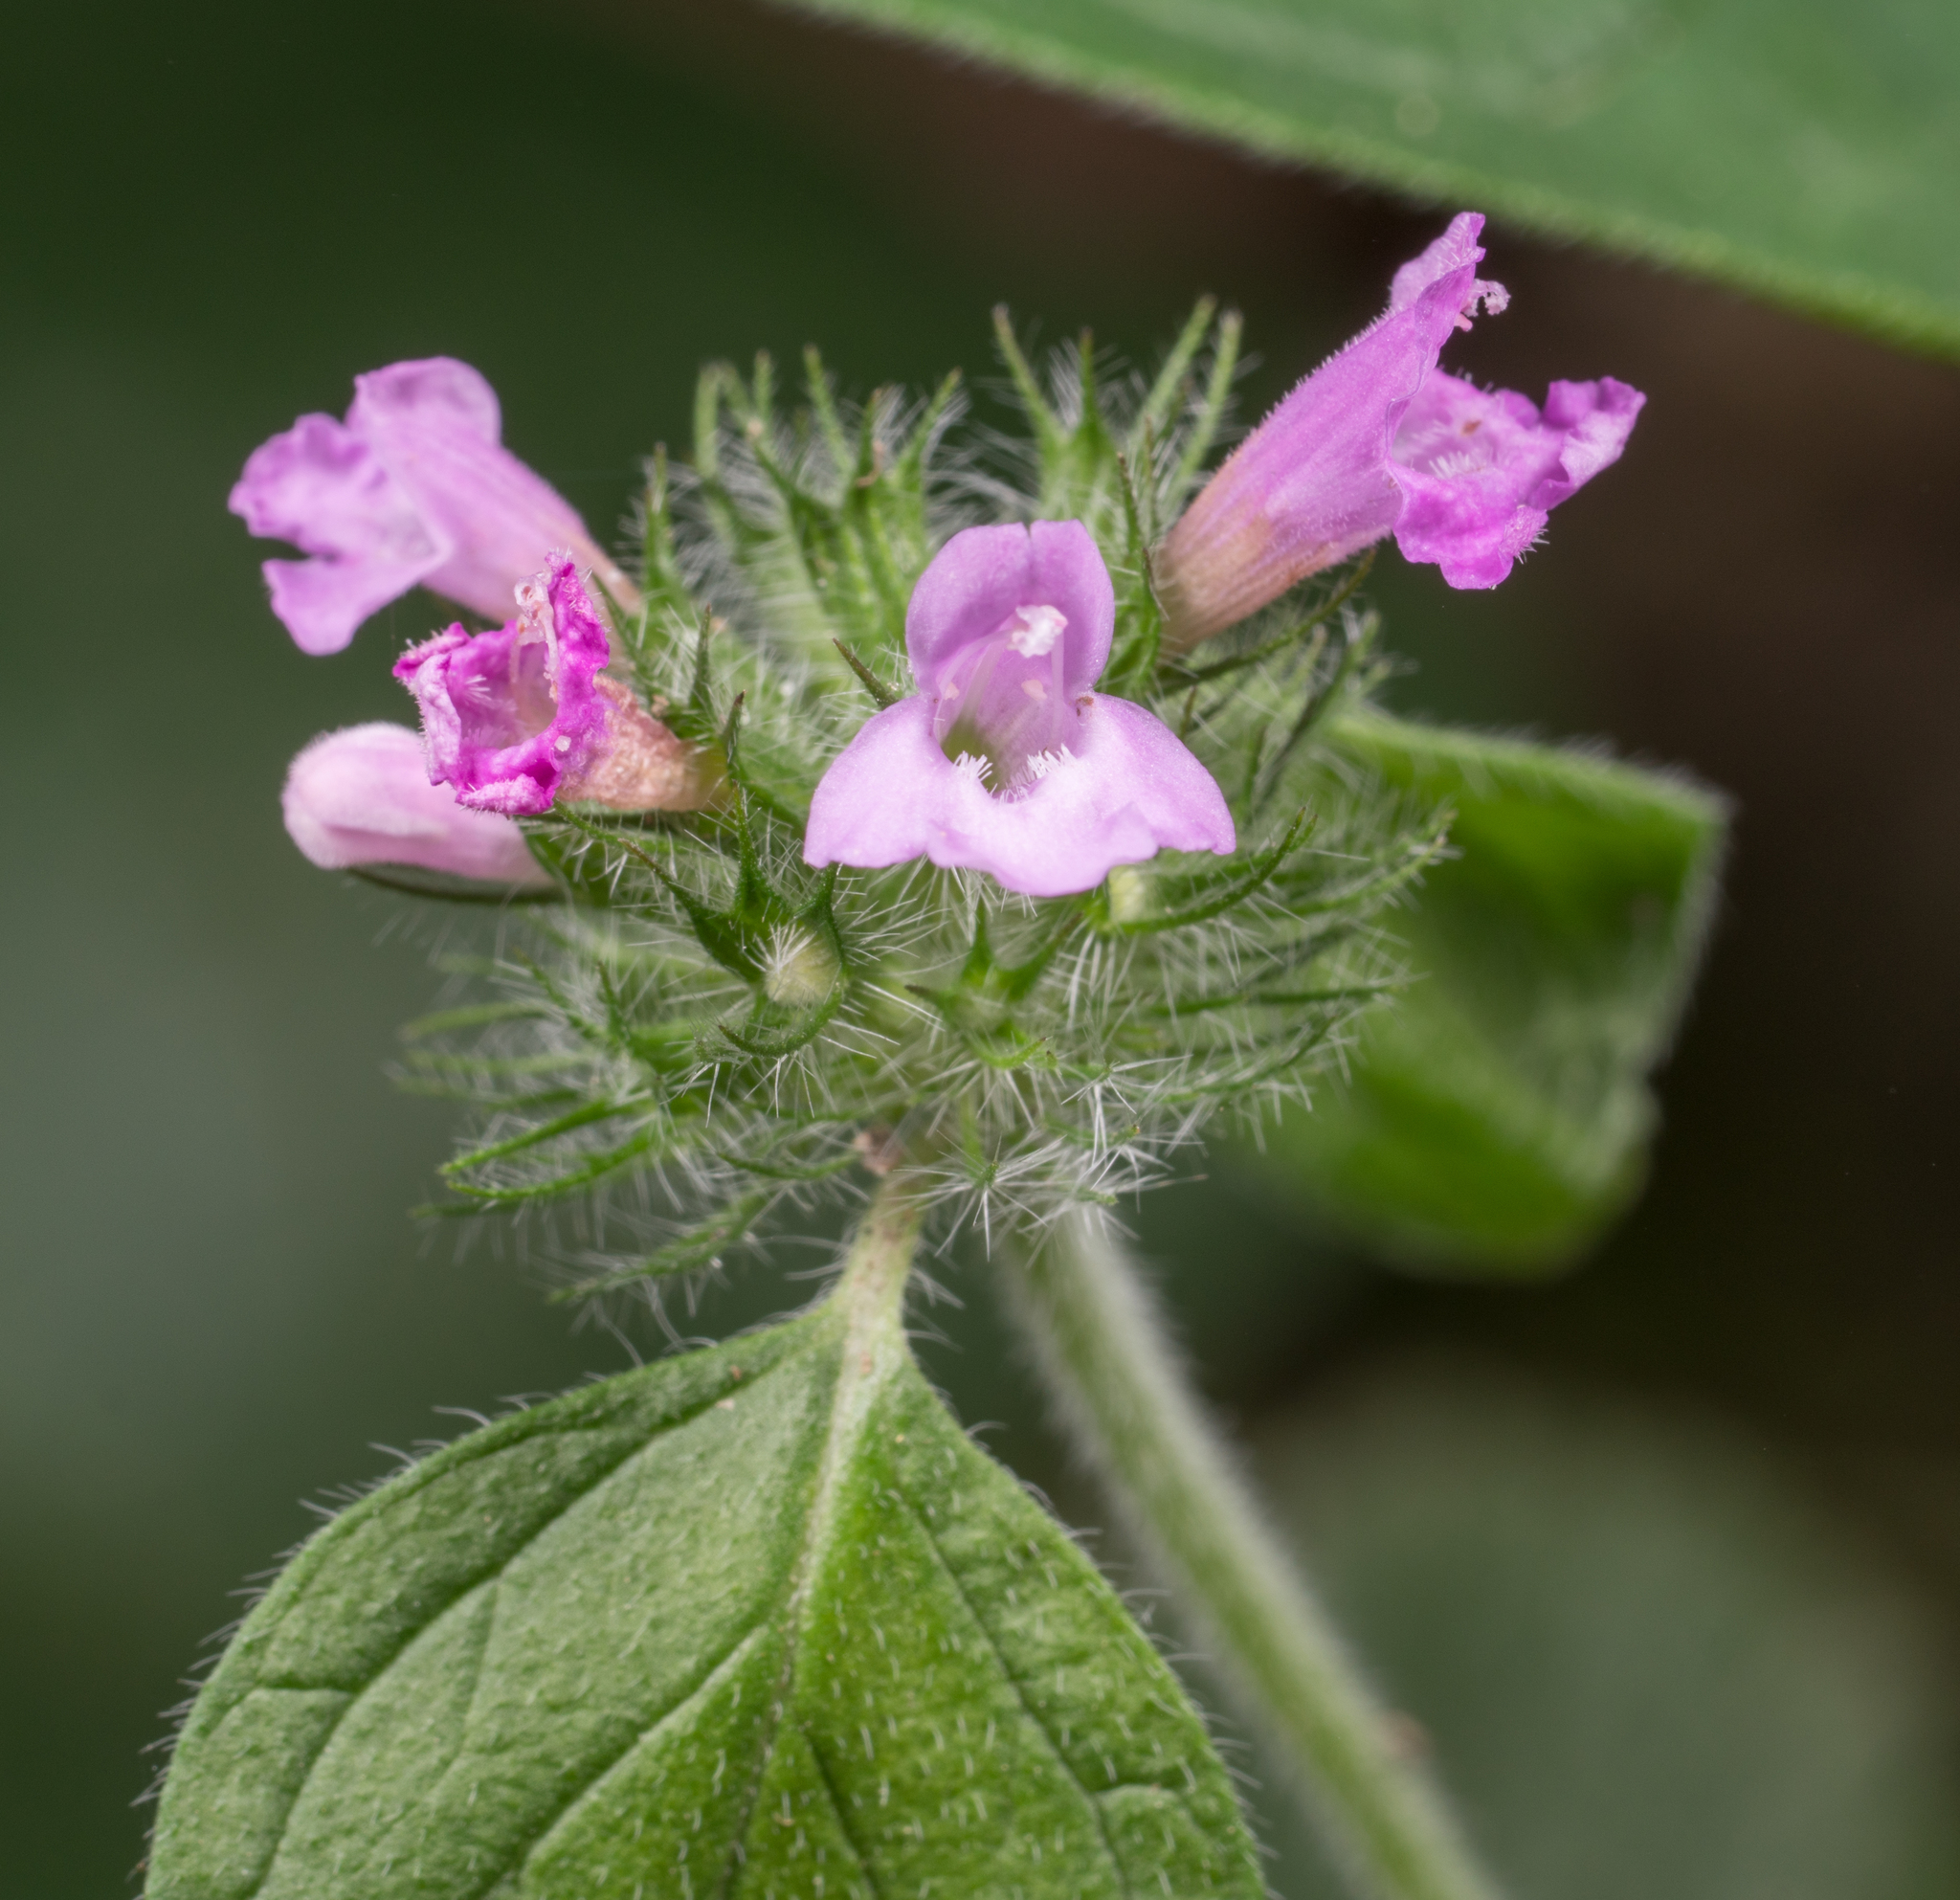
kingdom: Plantae
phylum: Tracheophyta
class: Magnoliopsida
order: Lamiales
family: Lamiaceae
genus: Clinopodium
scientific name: Clinopodium vulgare
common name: Wild basil
